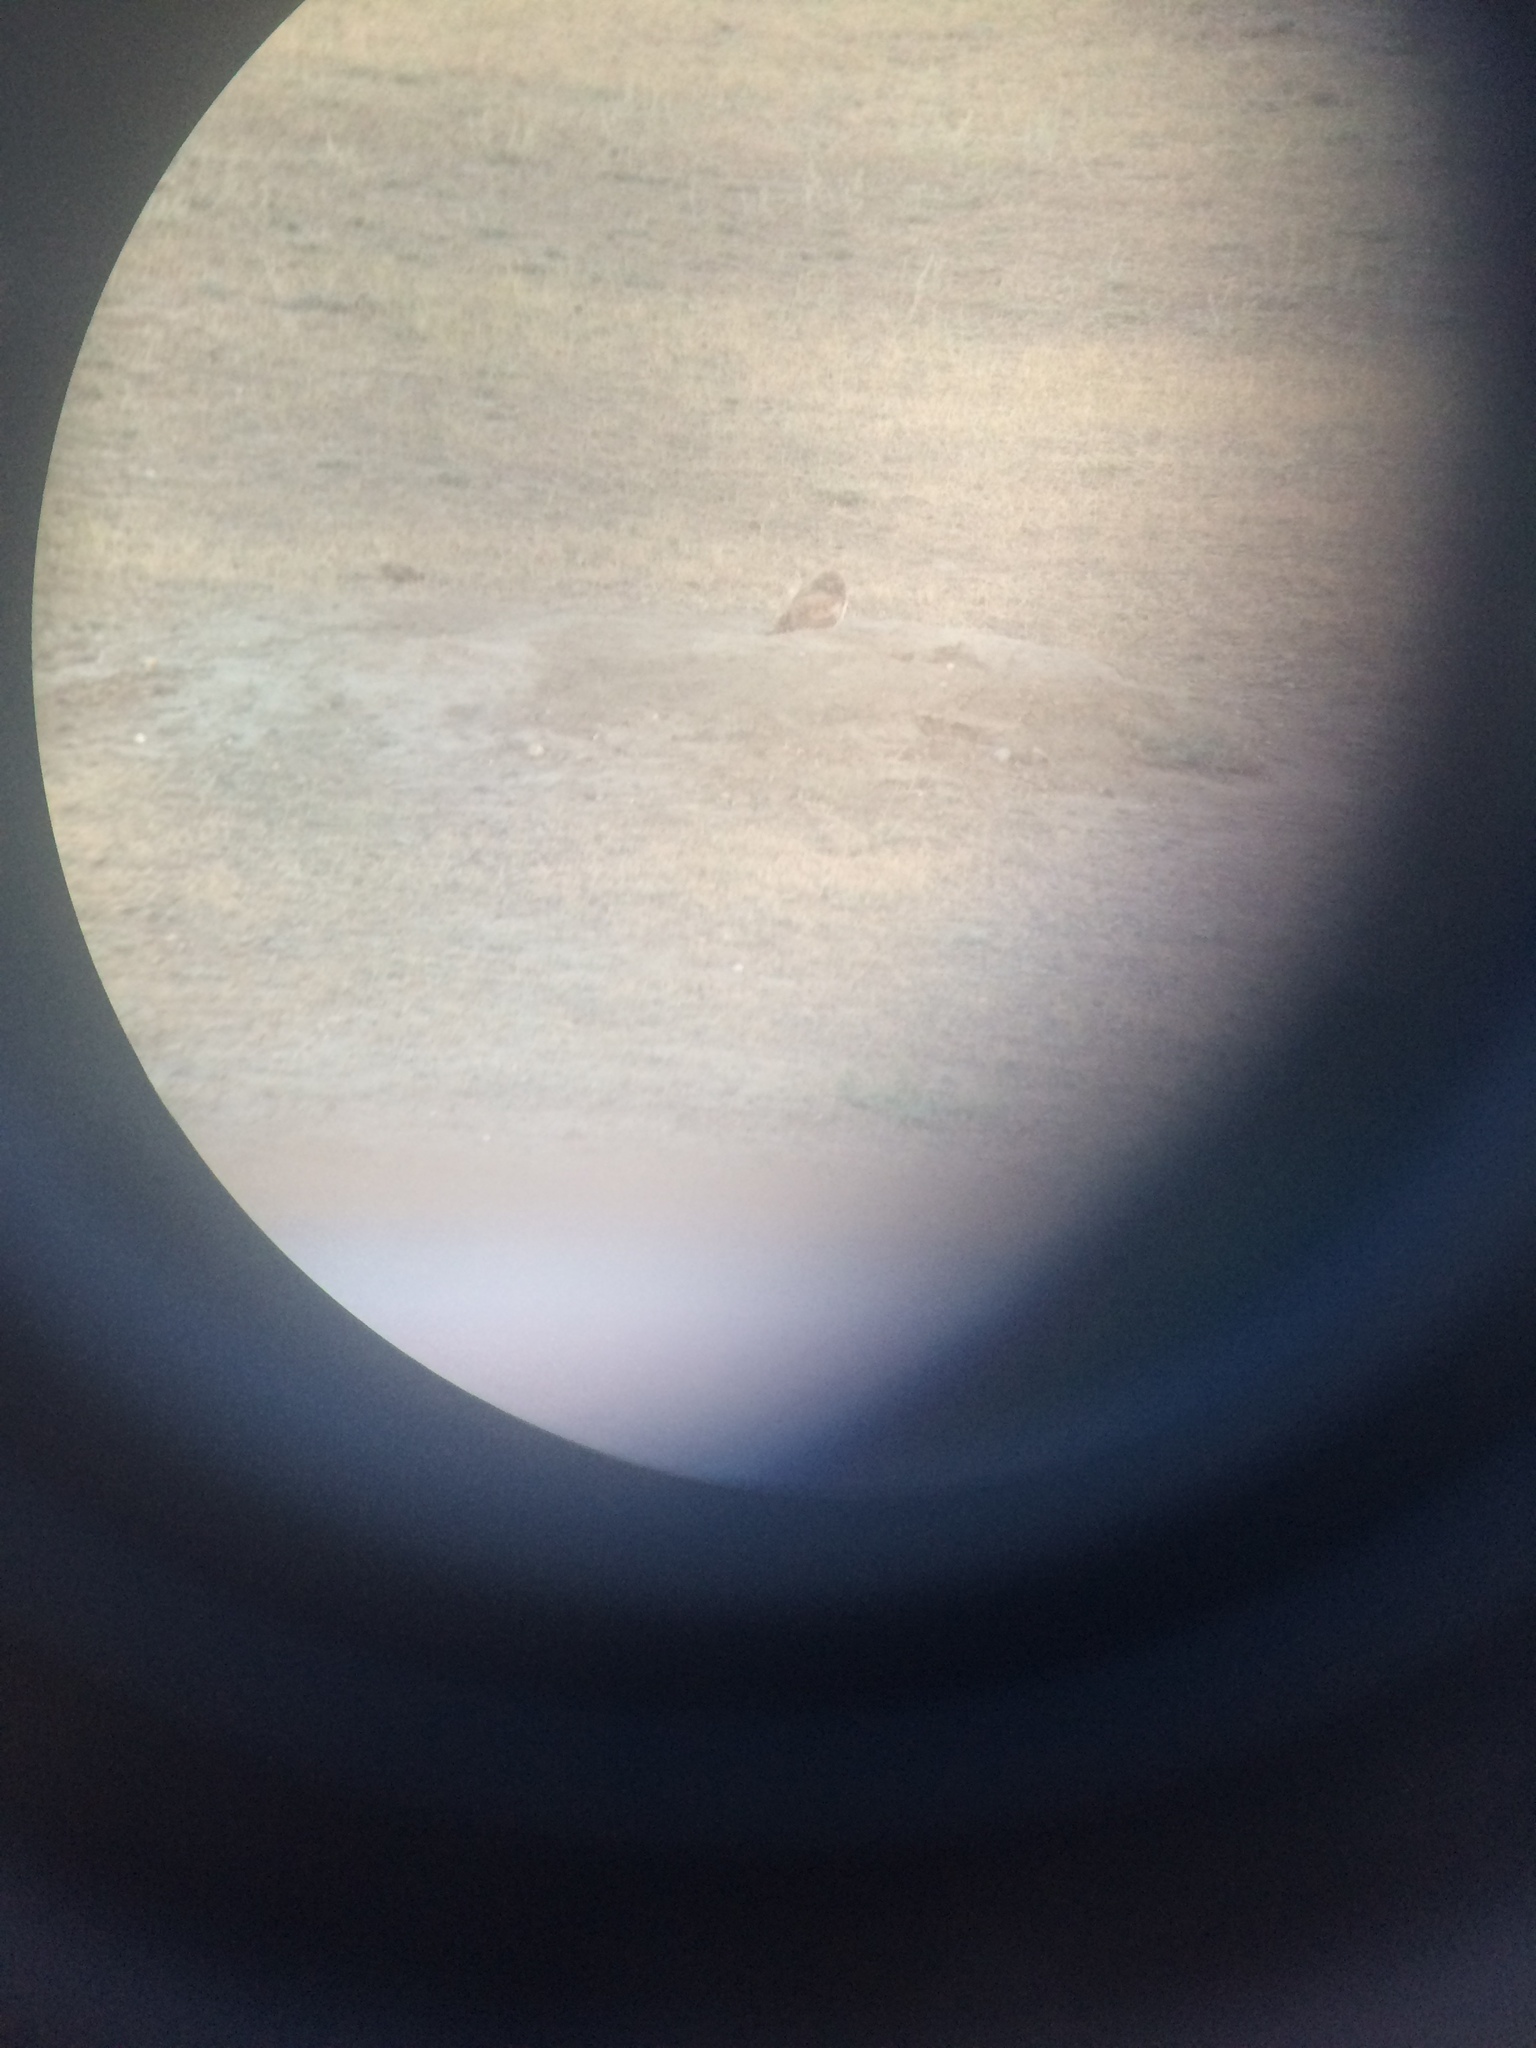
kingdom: Animalia
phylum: Chordata
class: Aves
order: Strigiformes
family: Strigidae
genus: Athene
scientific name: Athene cunicularia
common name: Burrowing owl
